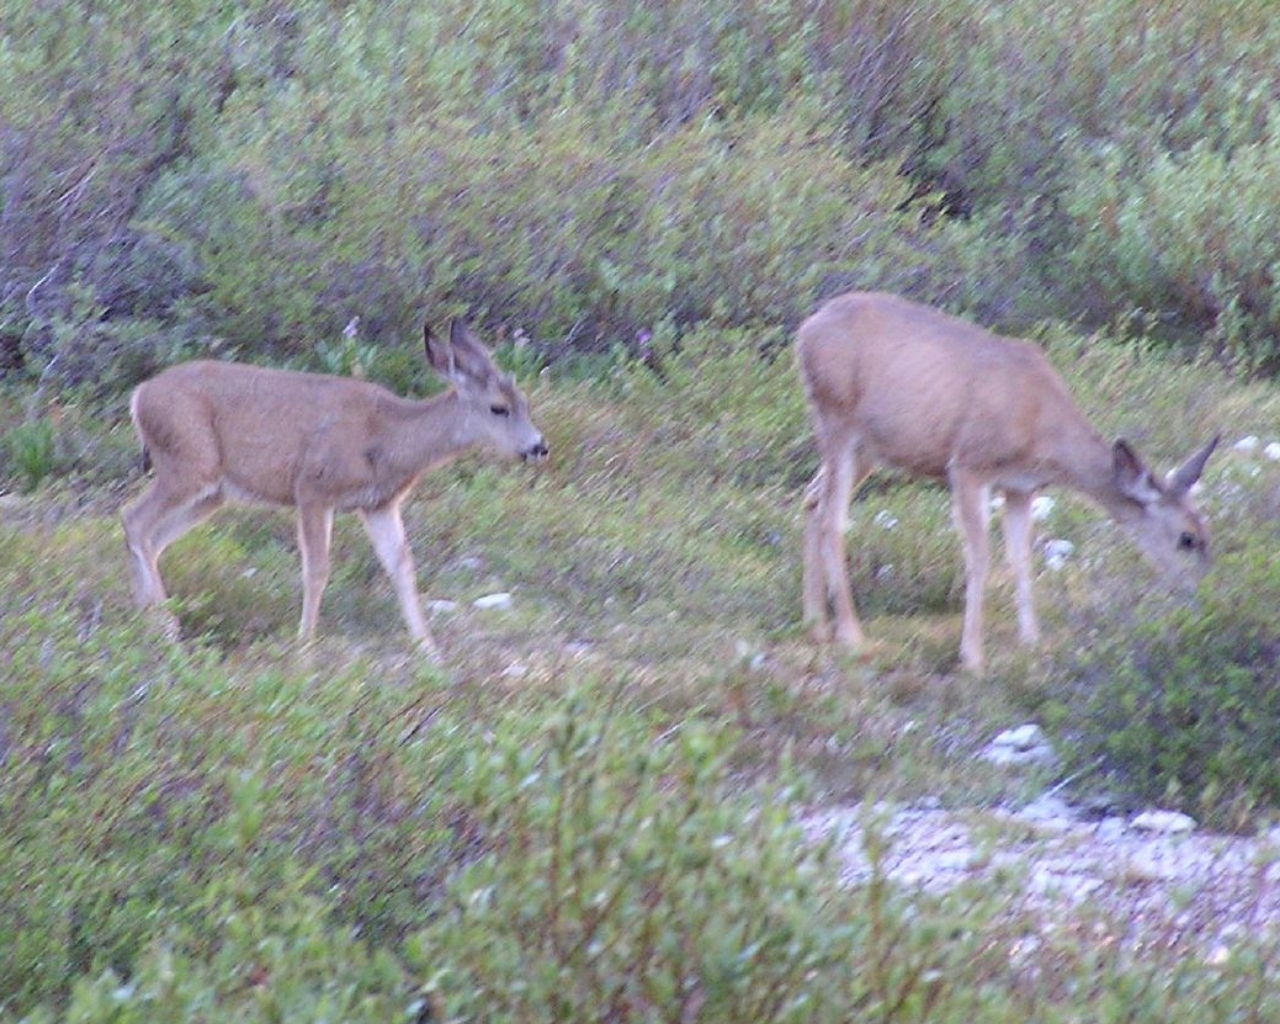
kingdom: Animalia
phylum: Chordata
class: Mammalia
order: Artiodactyla
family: Cervidae
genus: Odocoileus
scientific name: Odocoileus hemionus
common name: Mule deer
